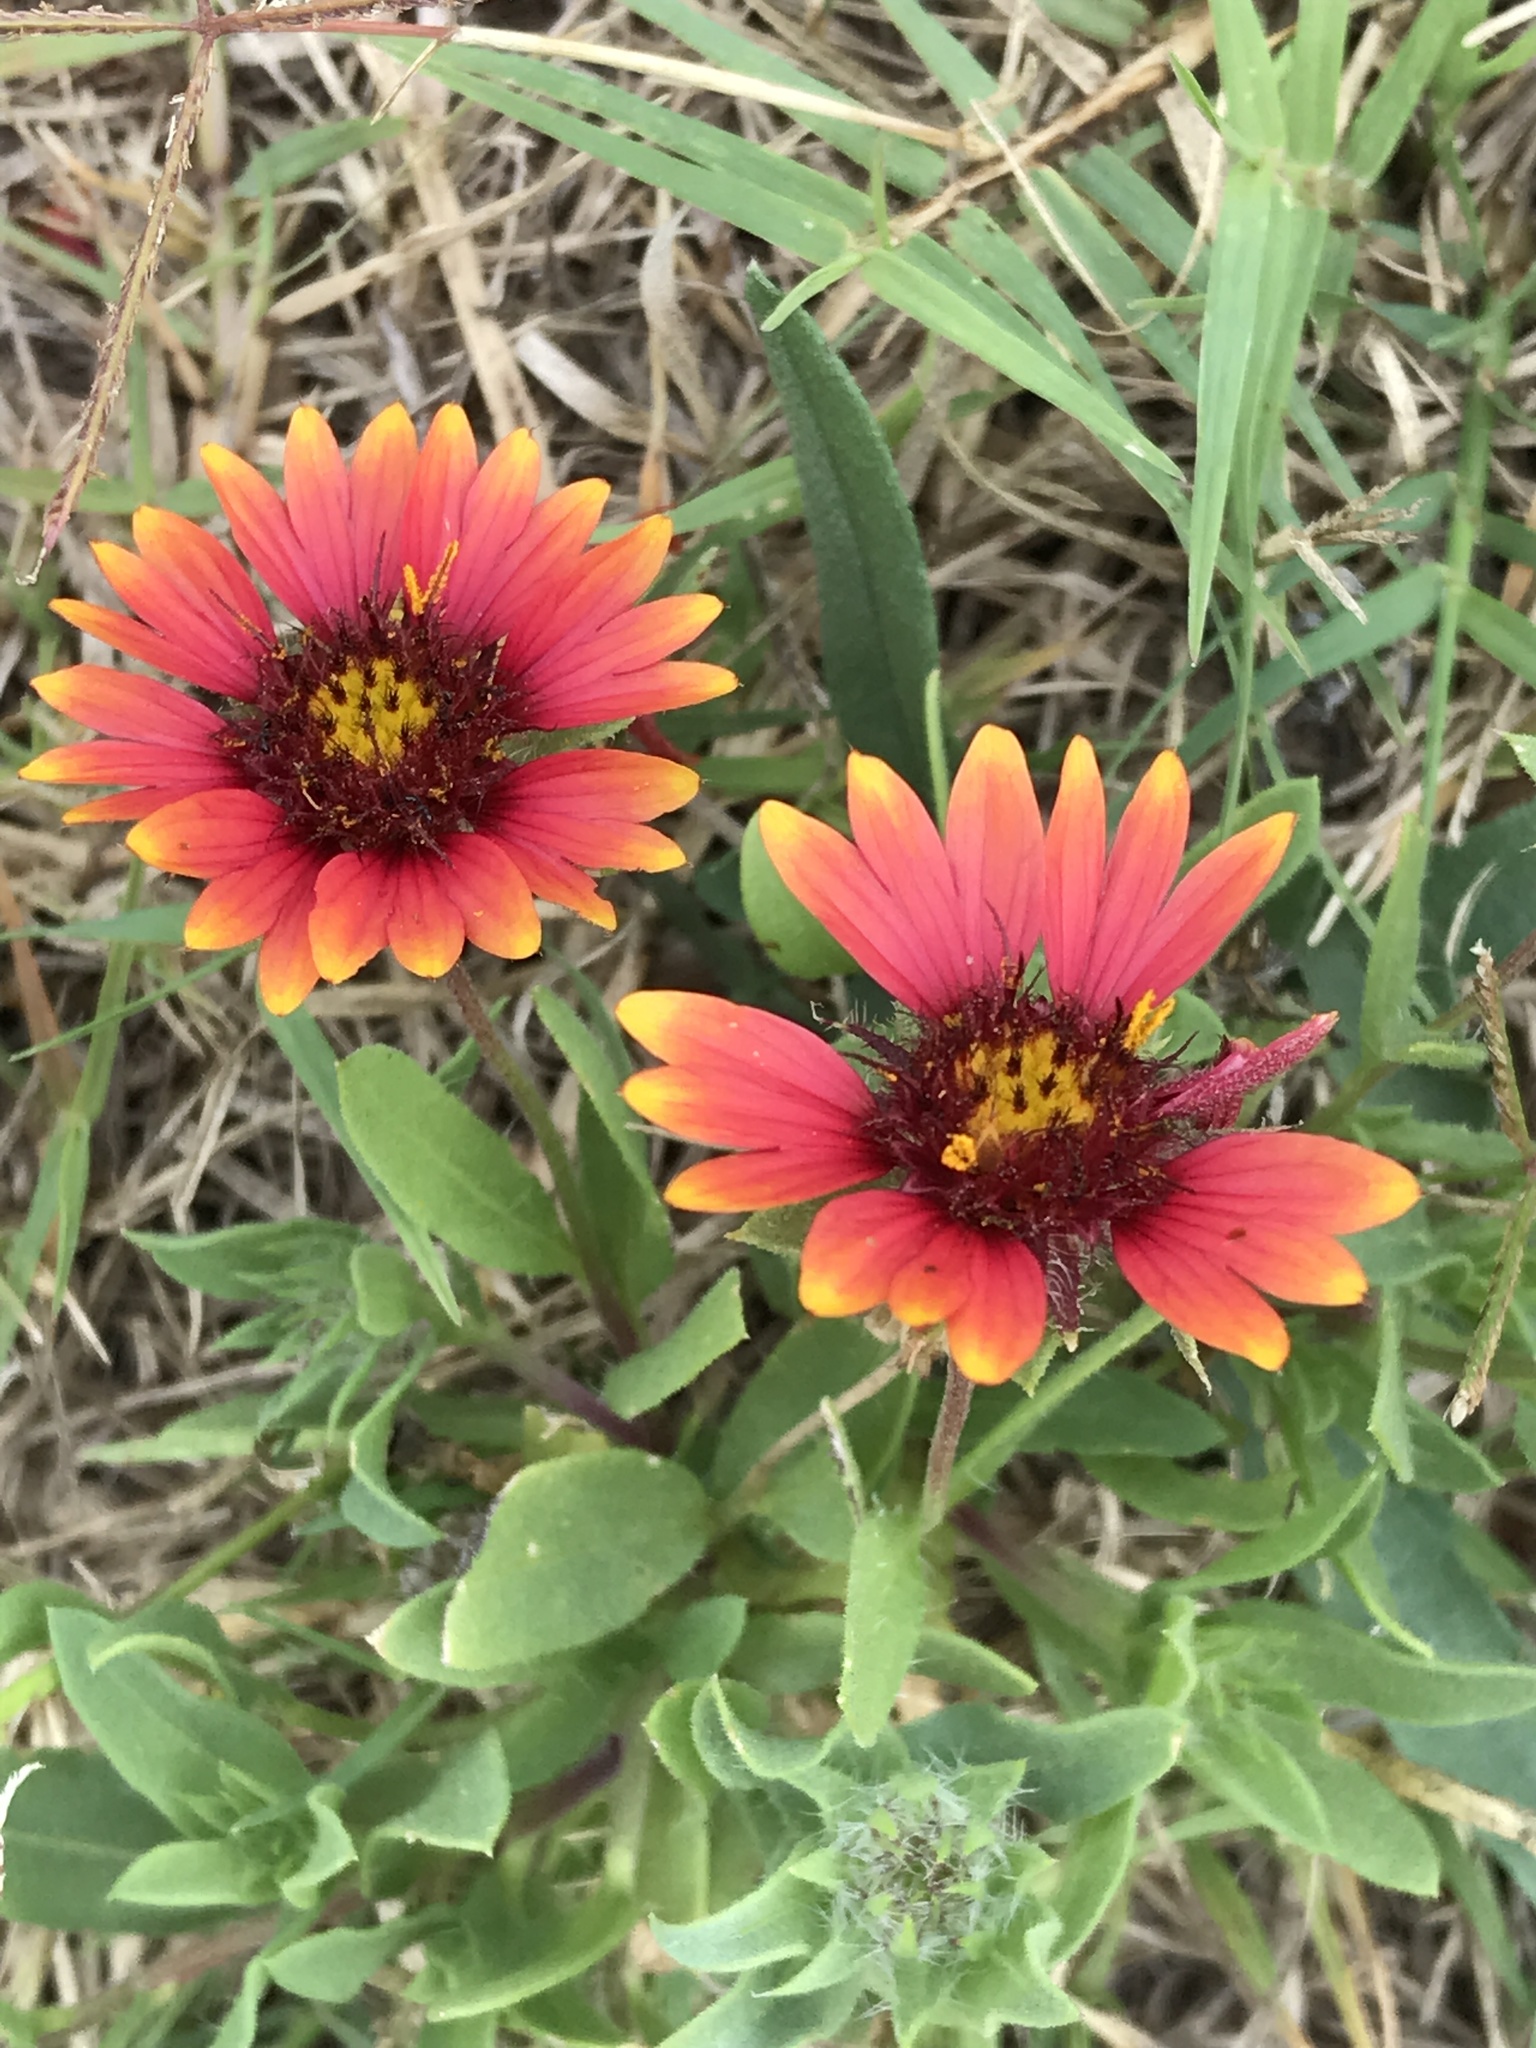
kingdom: Plantae
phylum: Tracheophyta
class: Magnoliopsida
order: Asterales
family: Asteraceae
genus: Gaillardia
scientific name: Gaillardia pulchella
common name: Firewheel
